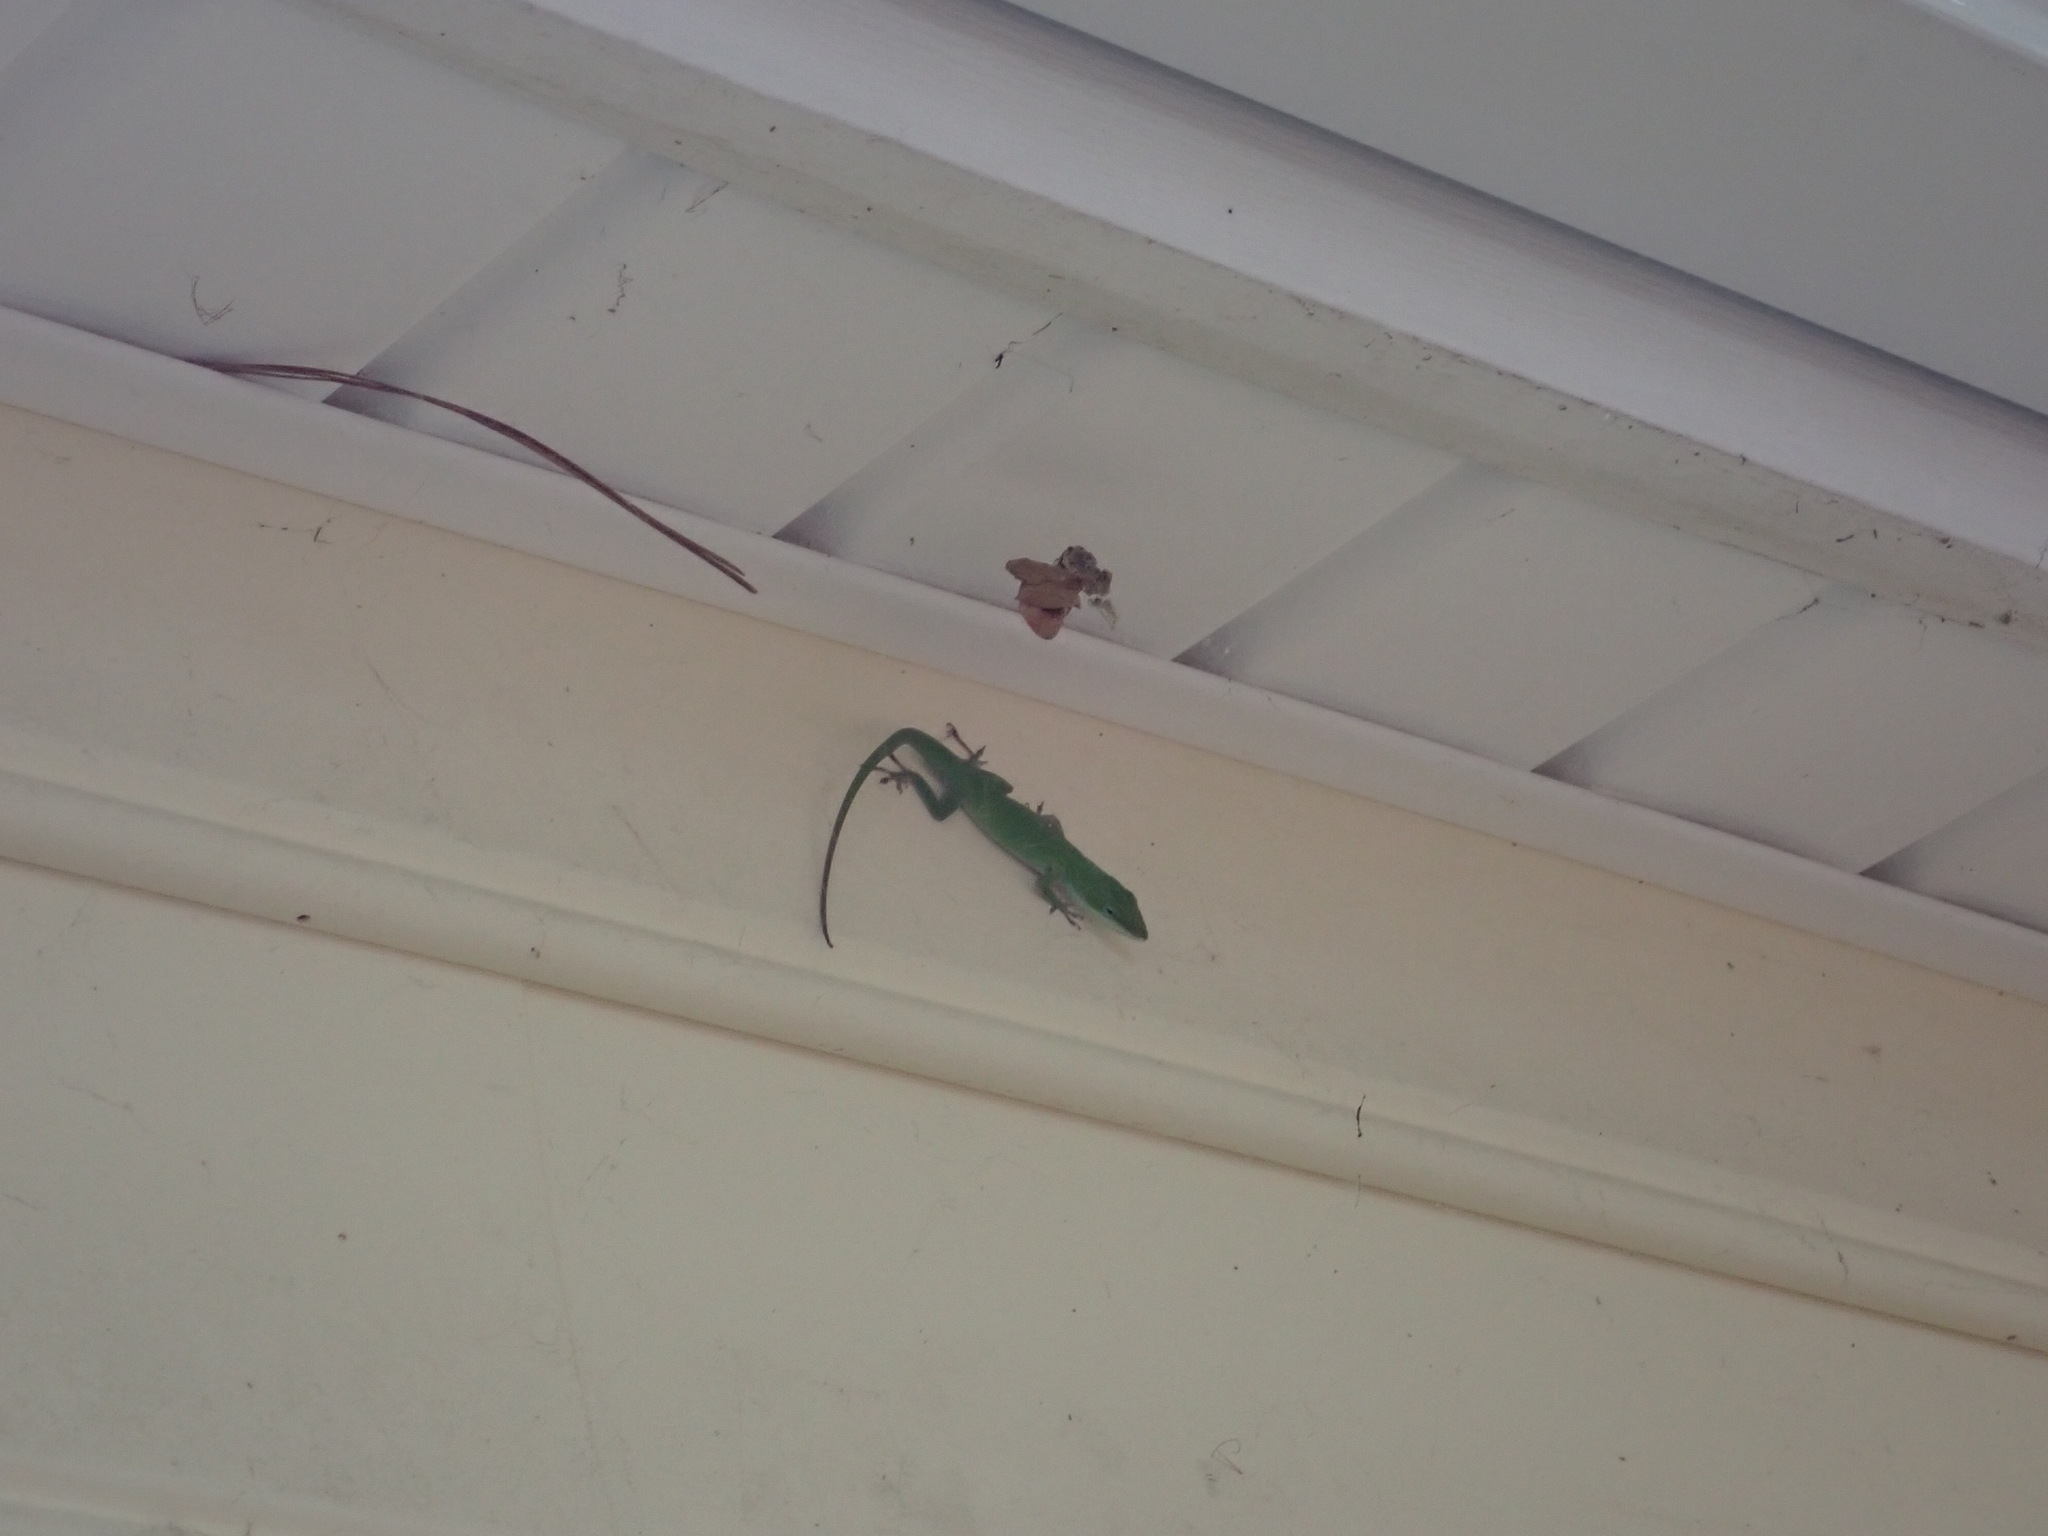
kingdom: Animalia
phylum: Chordata
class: Squamata
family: Dactyloidae
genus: Anolis
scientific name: Anolis carolinensis
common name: Green anole
